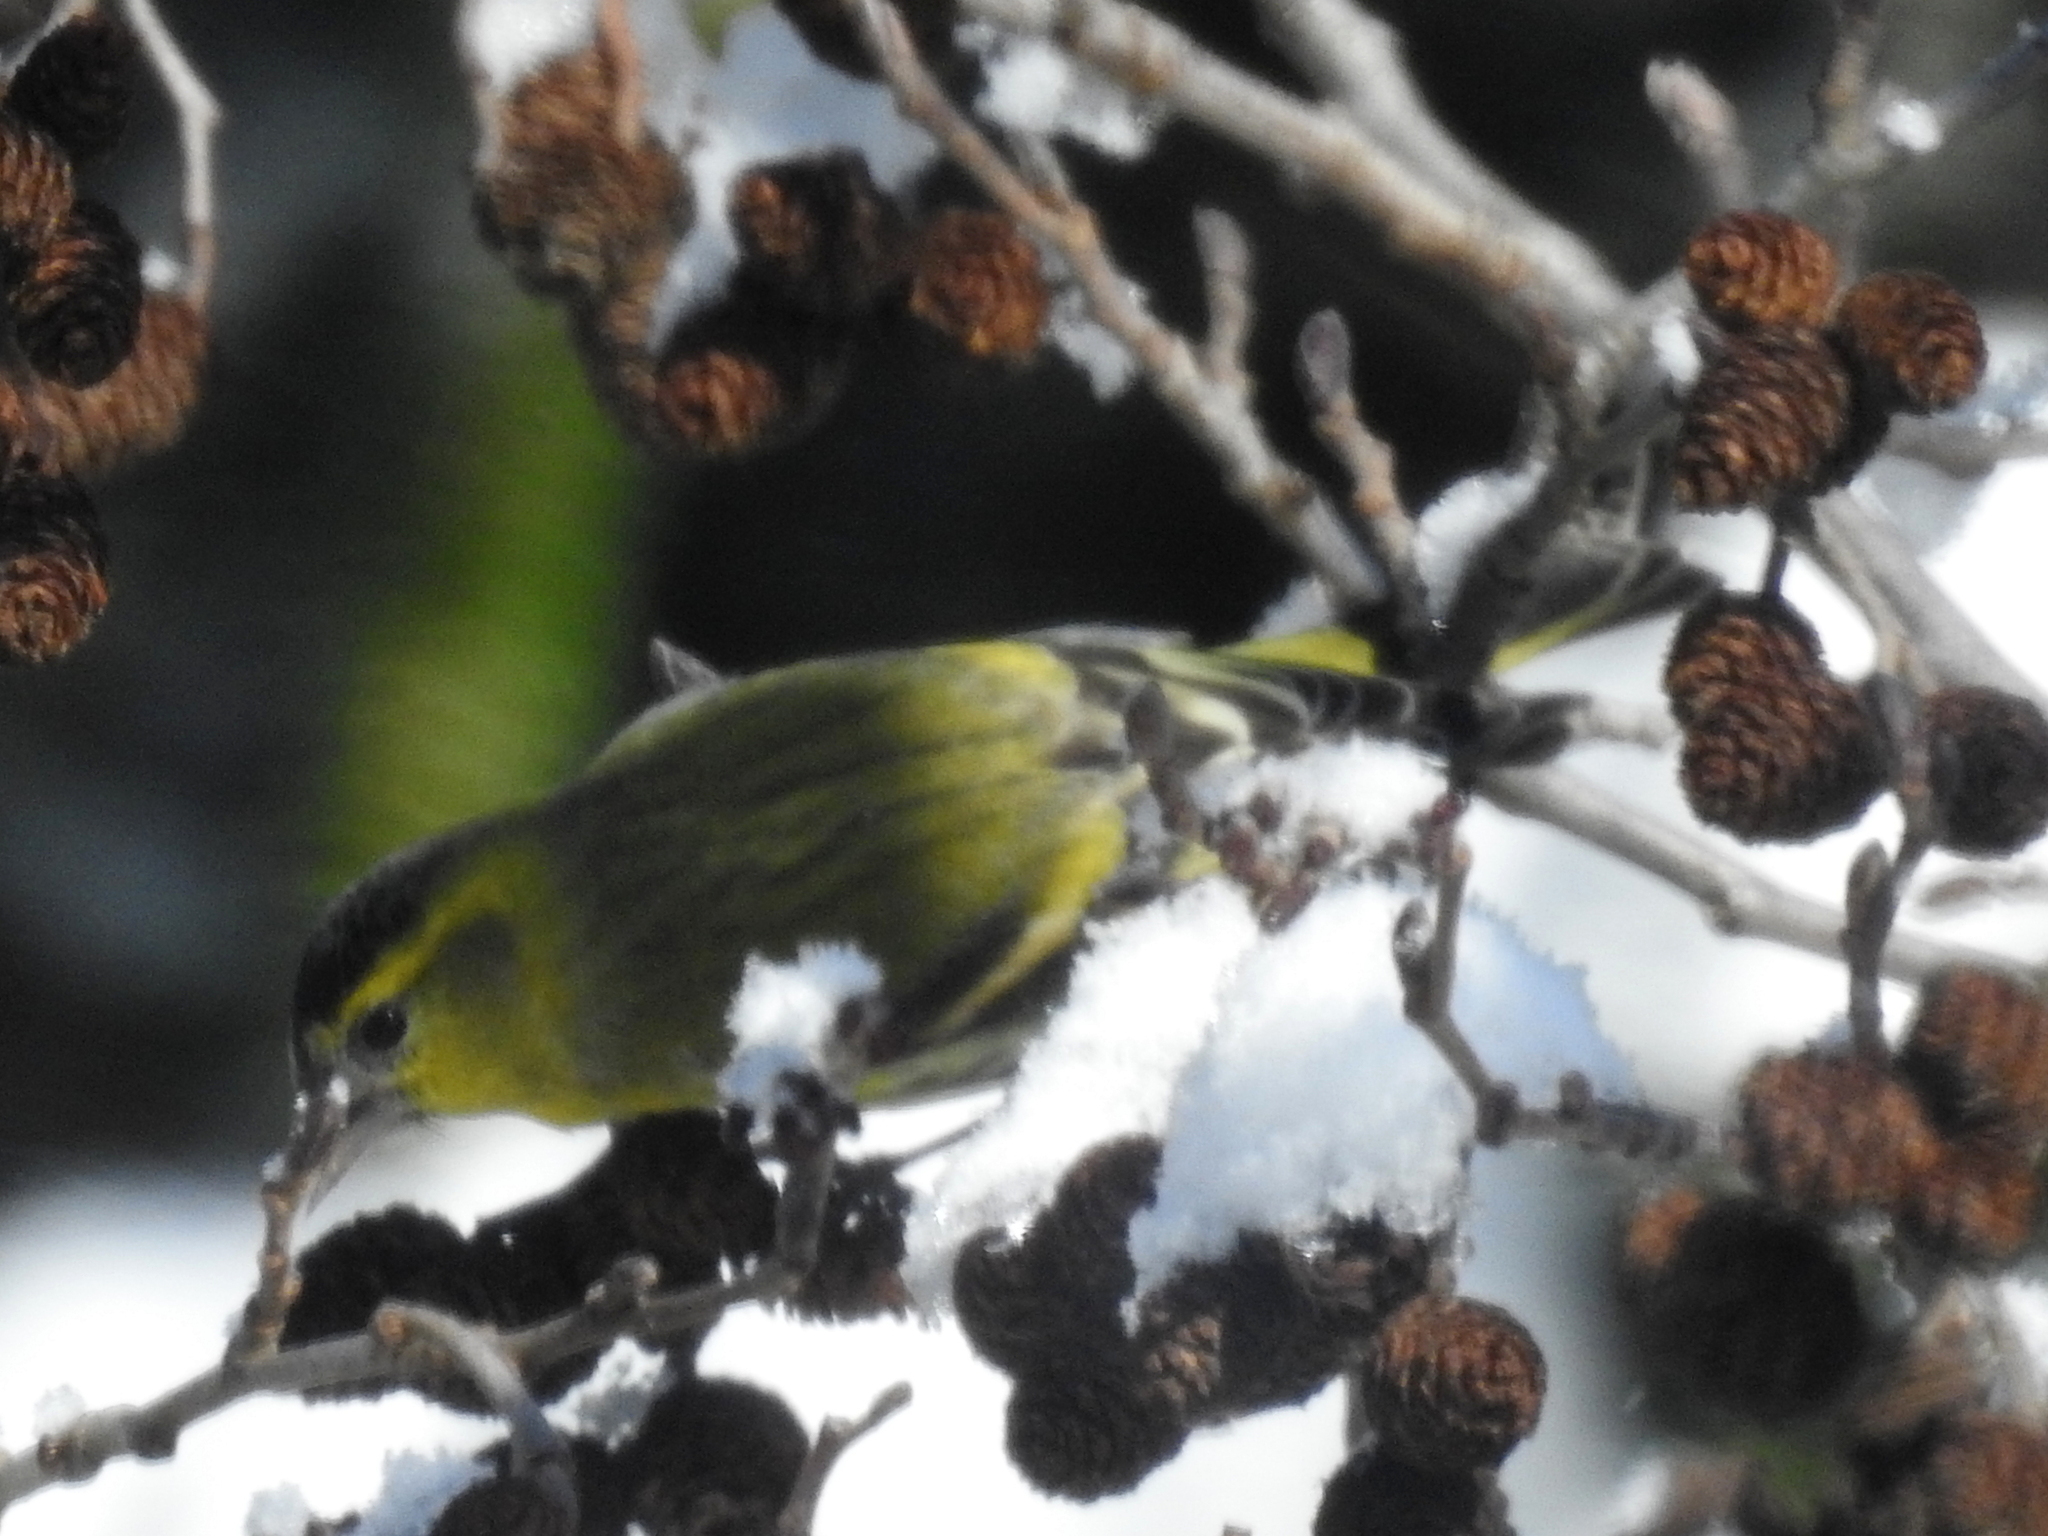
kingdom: Animalia
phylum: Chordata
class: Aves
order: Passeriformes
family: Fringillidae
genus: Spinus
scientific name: Spinus spinus
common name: Eurasian siskin
